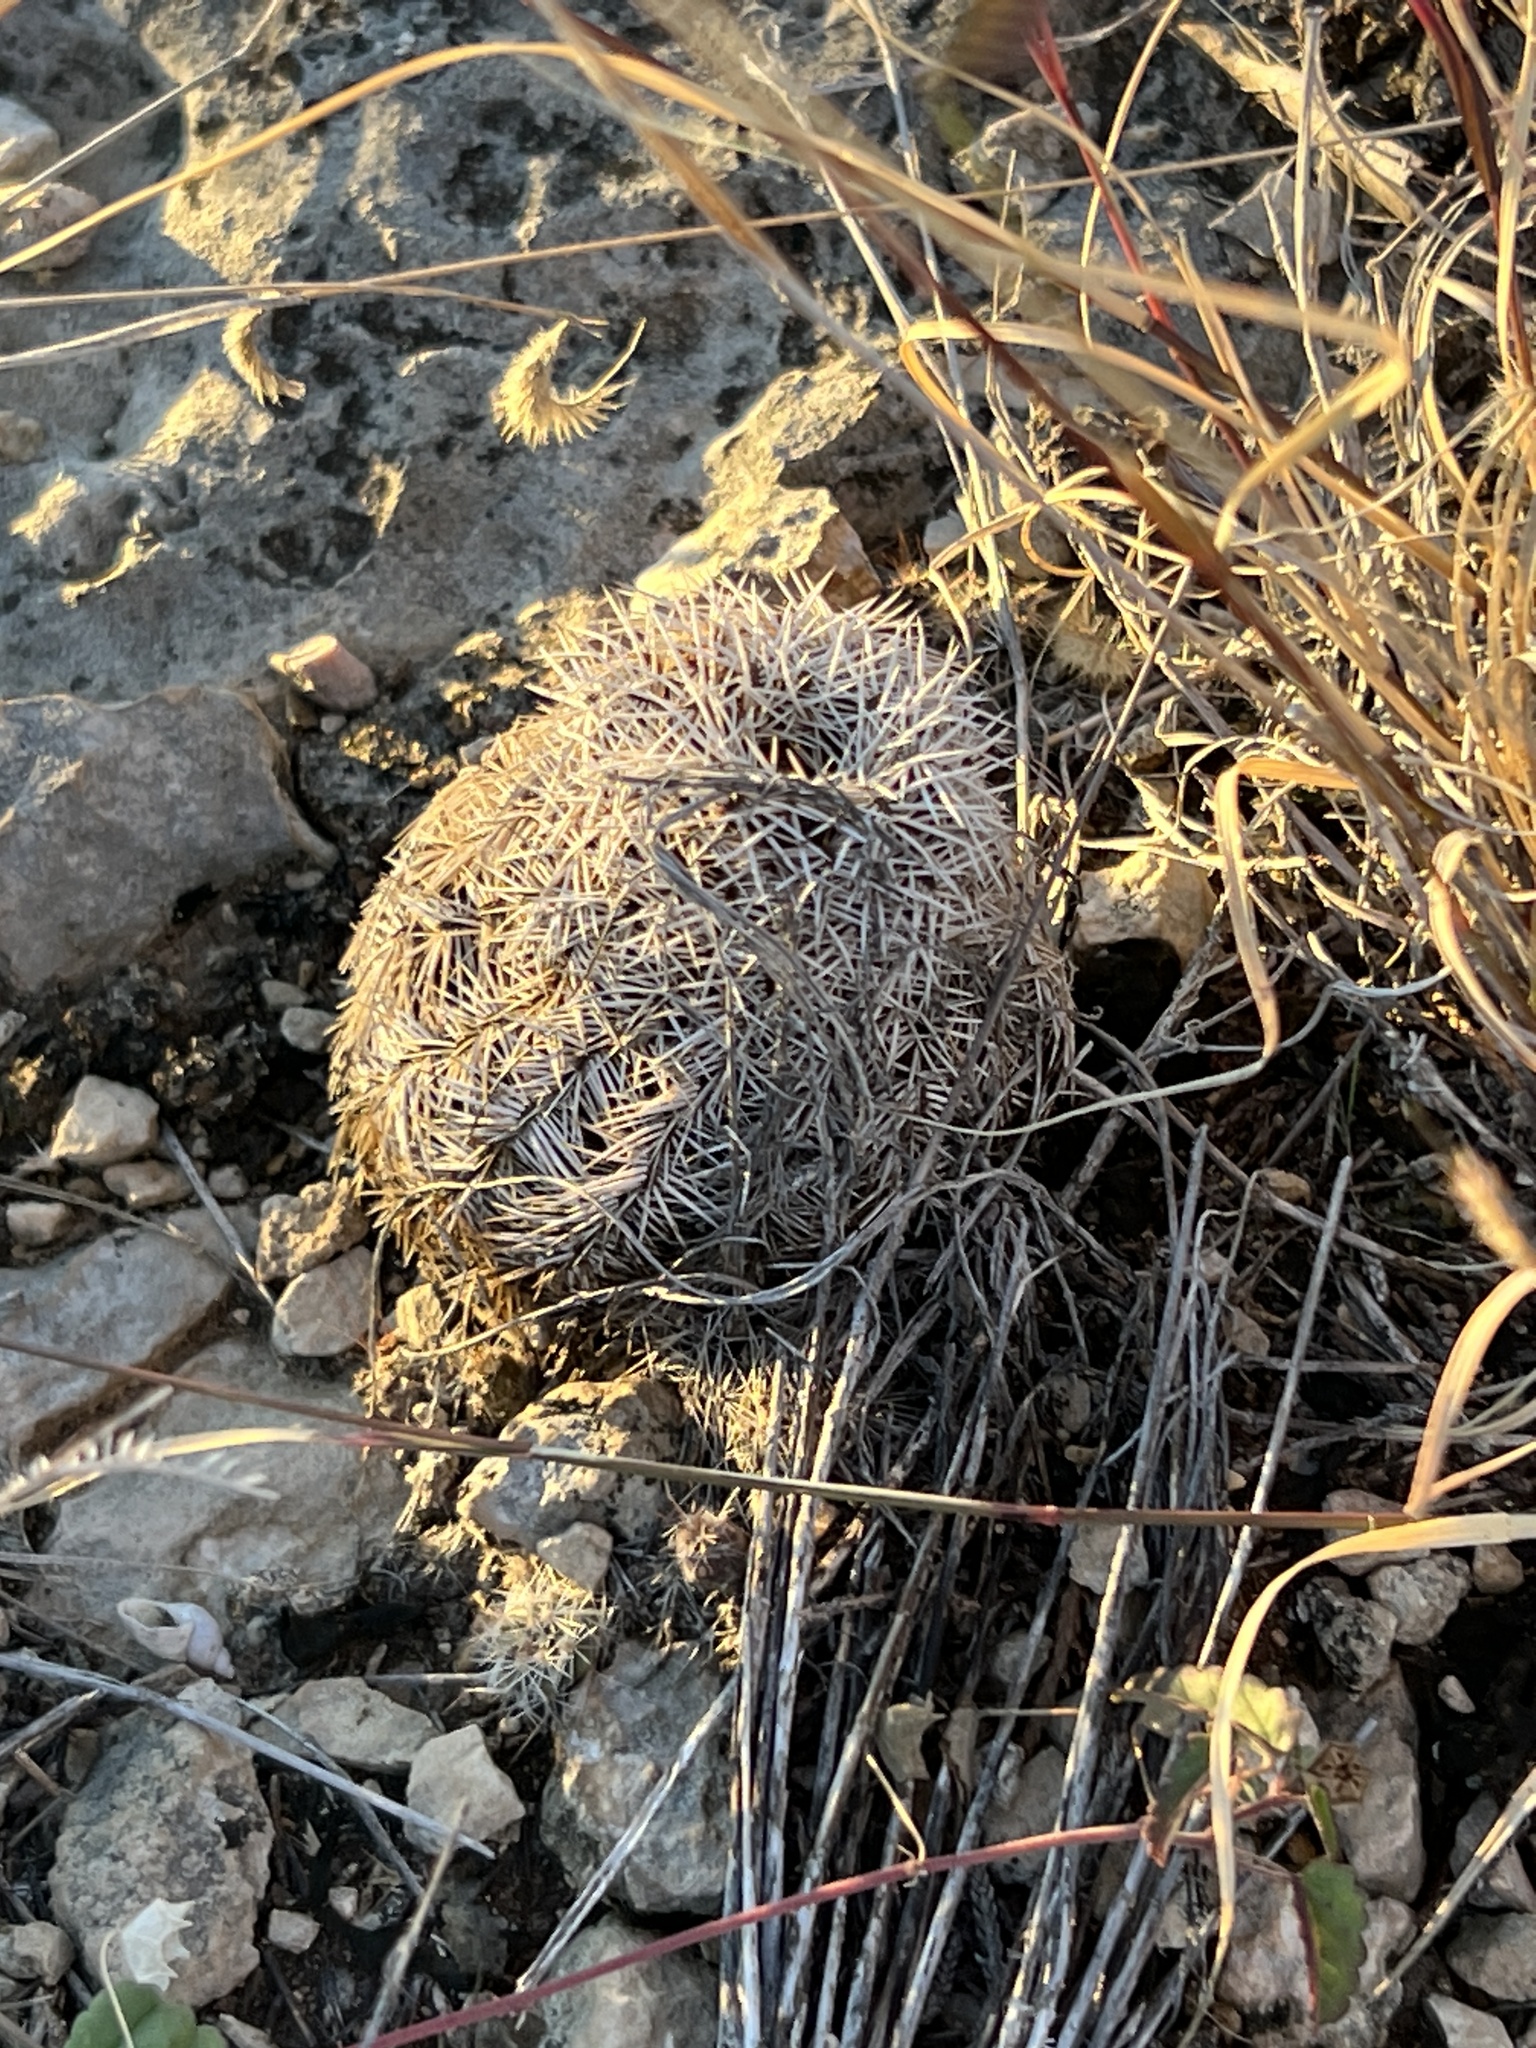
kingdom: Plantae
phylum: Tracheophyta
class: Magnoliopsida
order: Caryophyllales
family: Cactaceae
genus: Echinocereus
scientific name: Echinocereus reichenbachii
